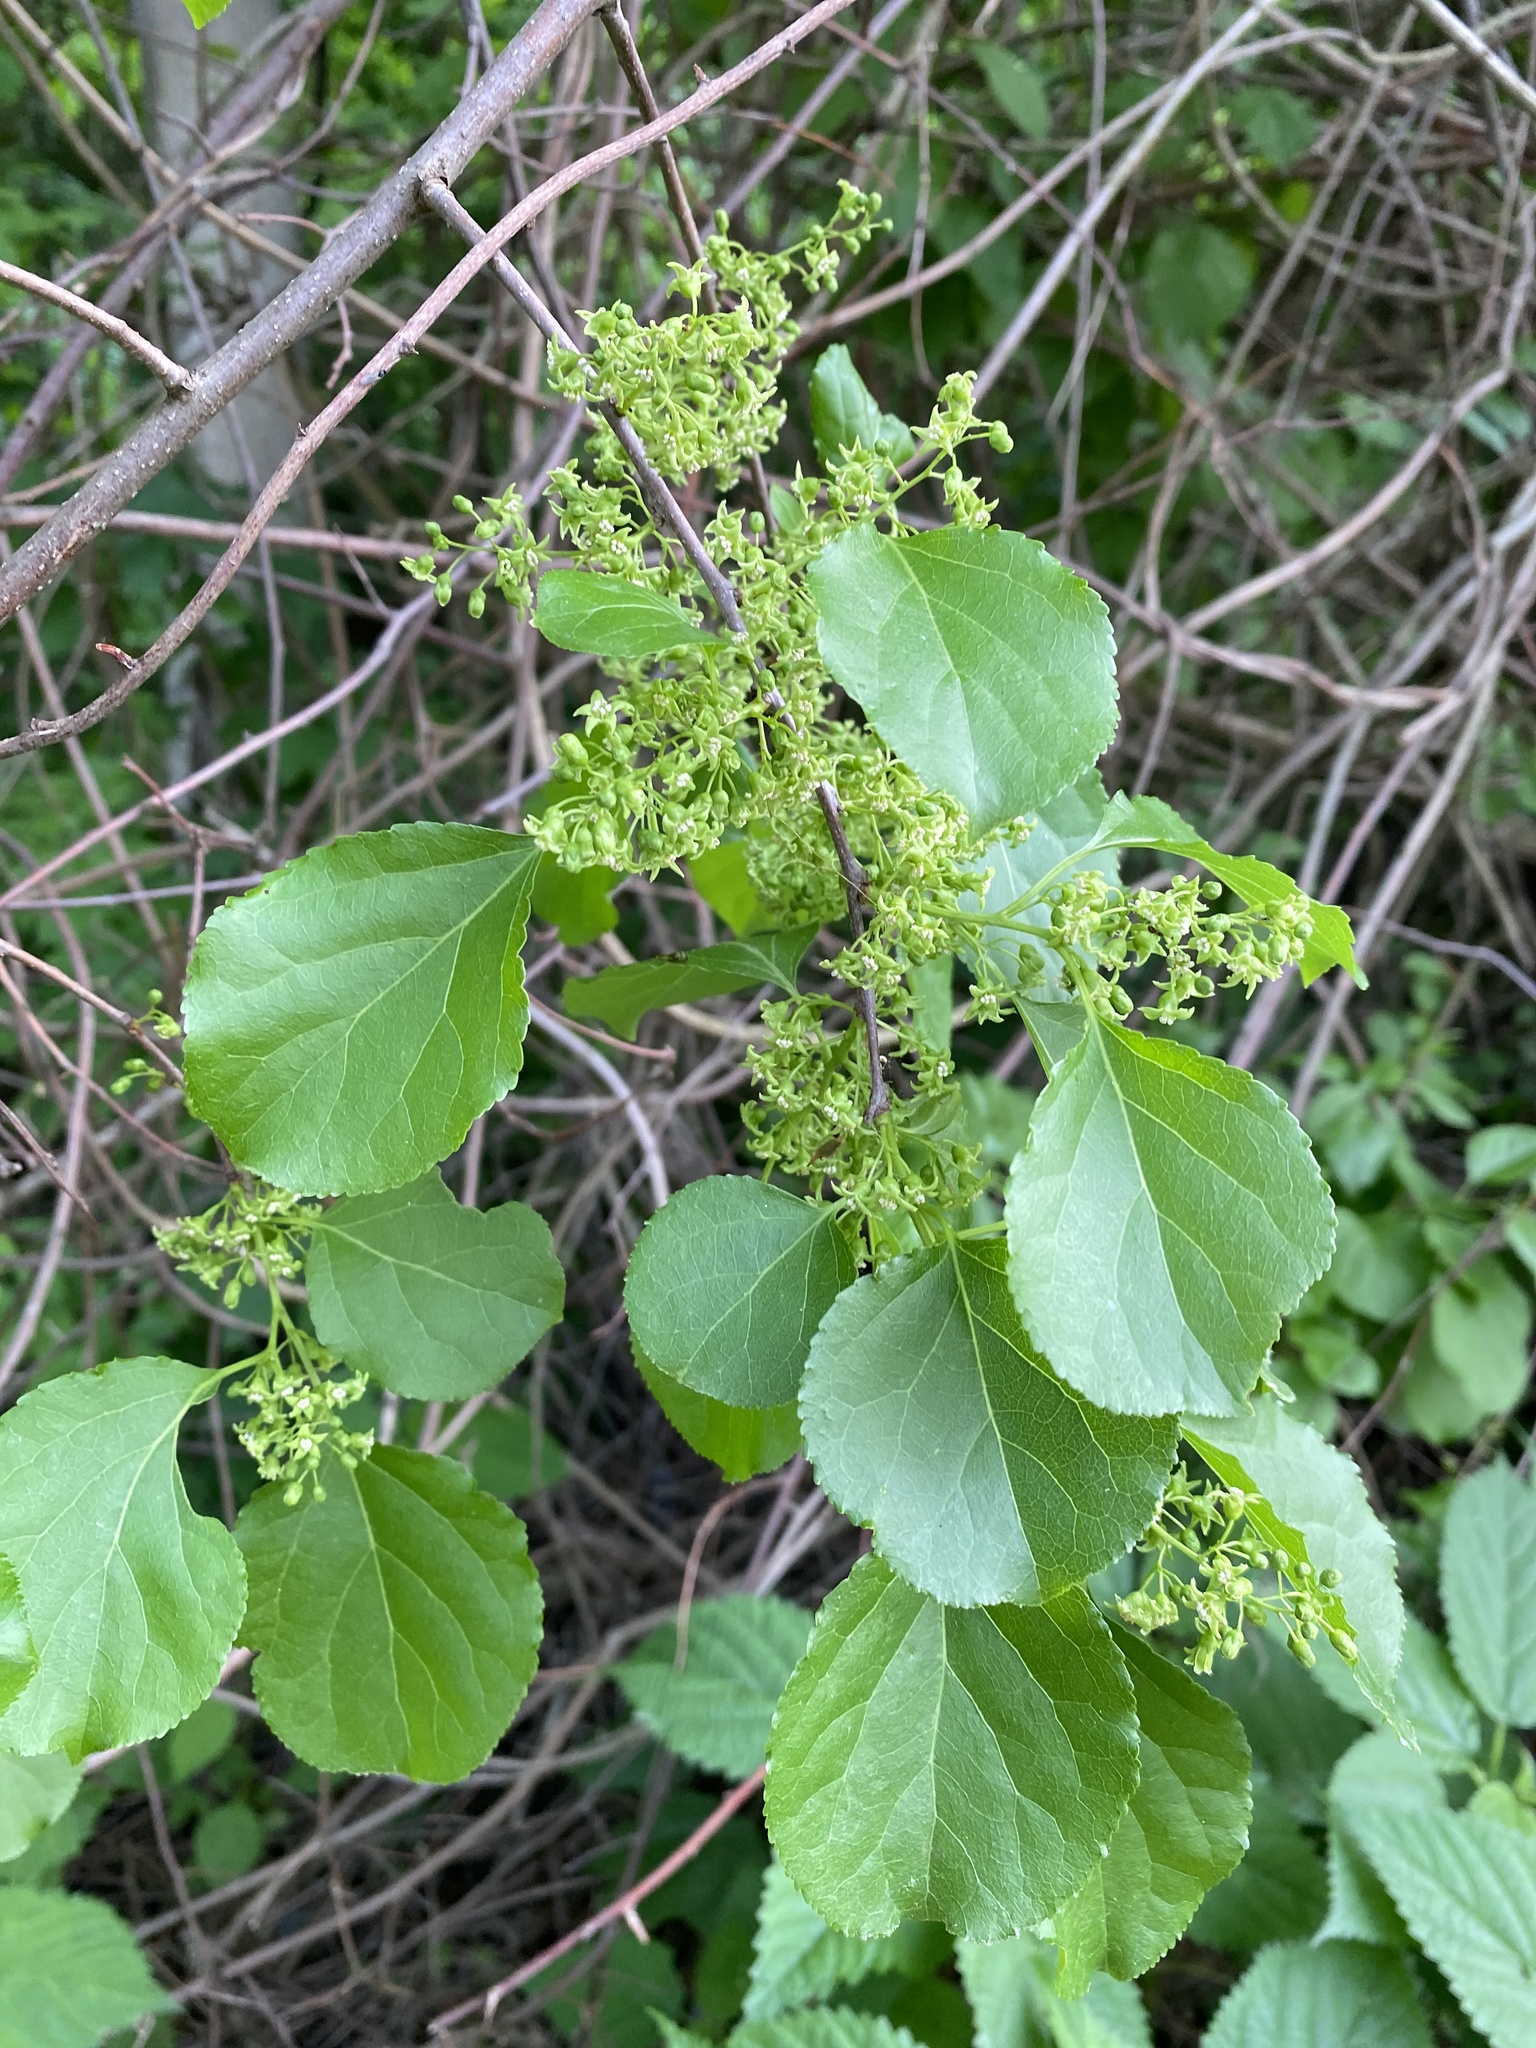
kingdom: Plantae
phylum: Tracheophyta
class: Magnoliopsida
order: Celastrales
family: Celastraceae
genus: Celastrus
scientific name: Celastrus orbiculatus
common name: Oriental bittersweet
